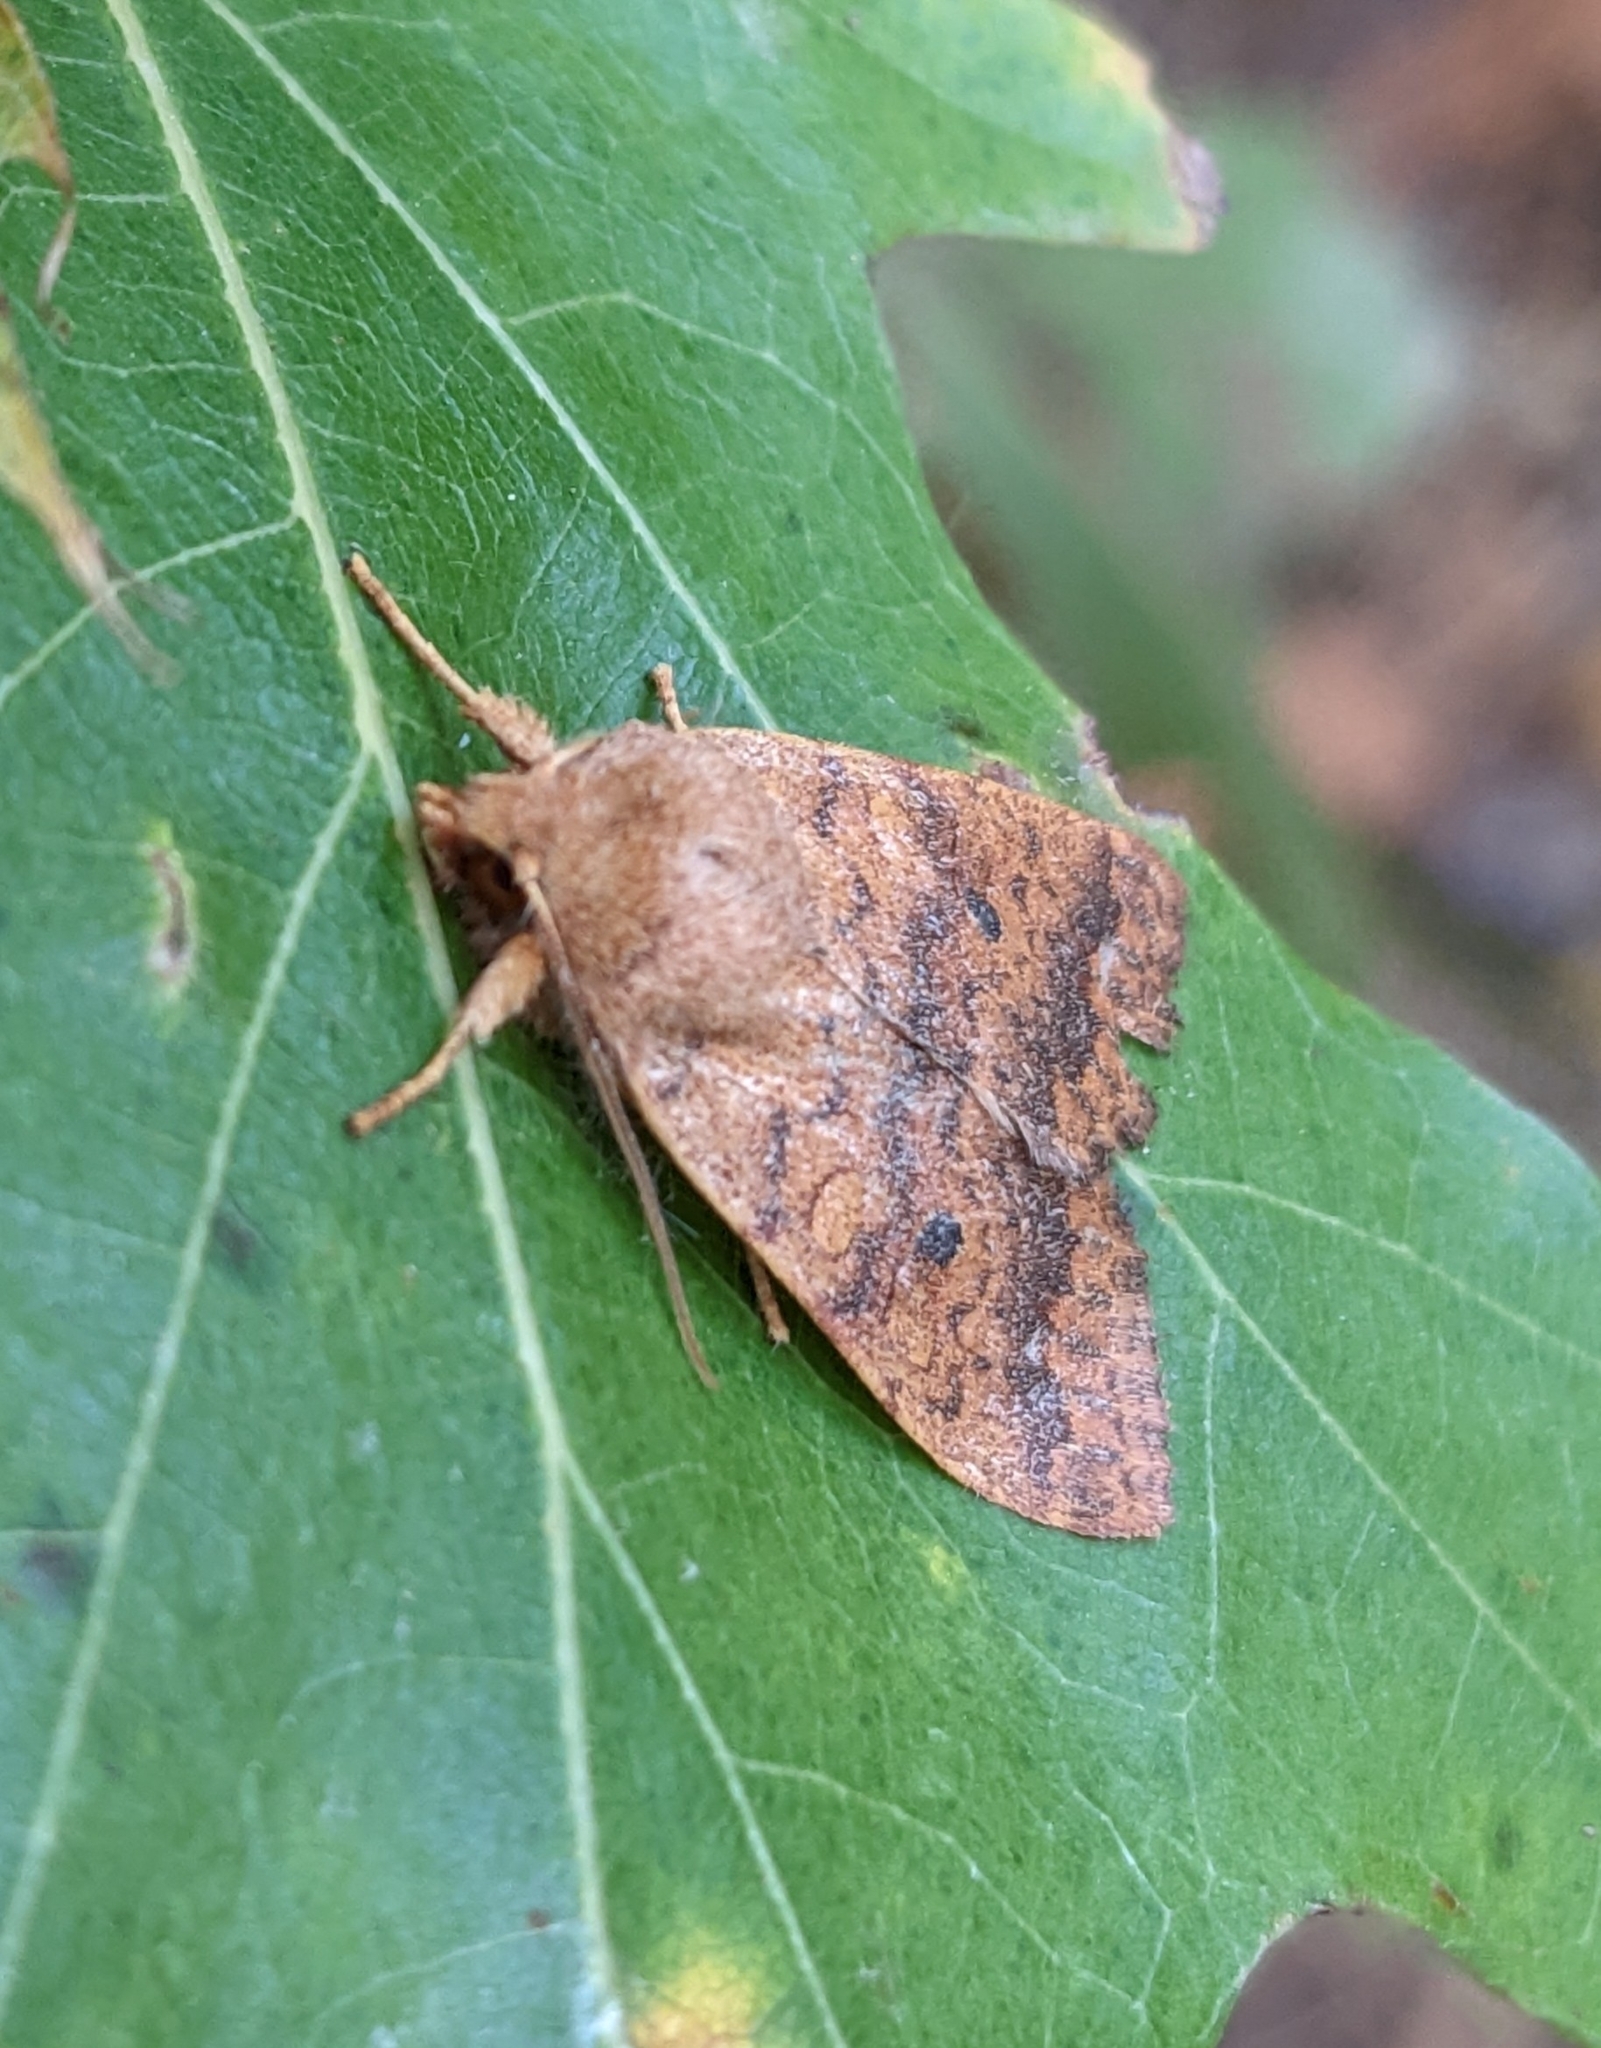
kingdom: Animalia
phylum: Arthropoda
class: Insecta
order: Lepidoptera
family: Noctuidae
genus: Agrochola
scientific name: Agrochola bicolorago
